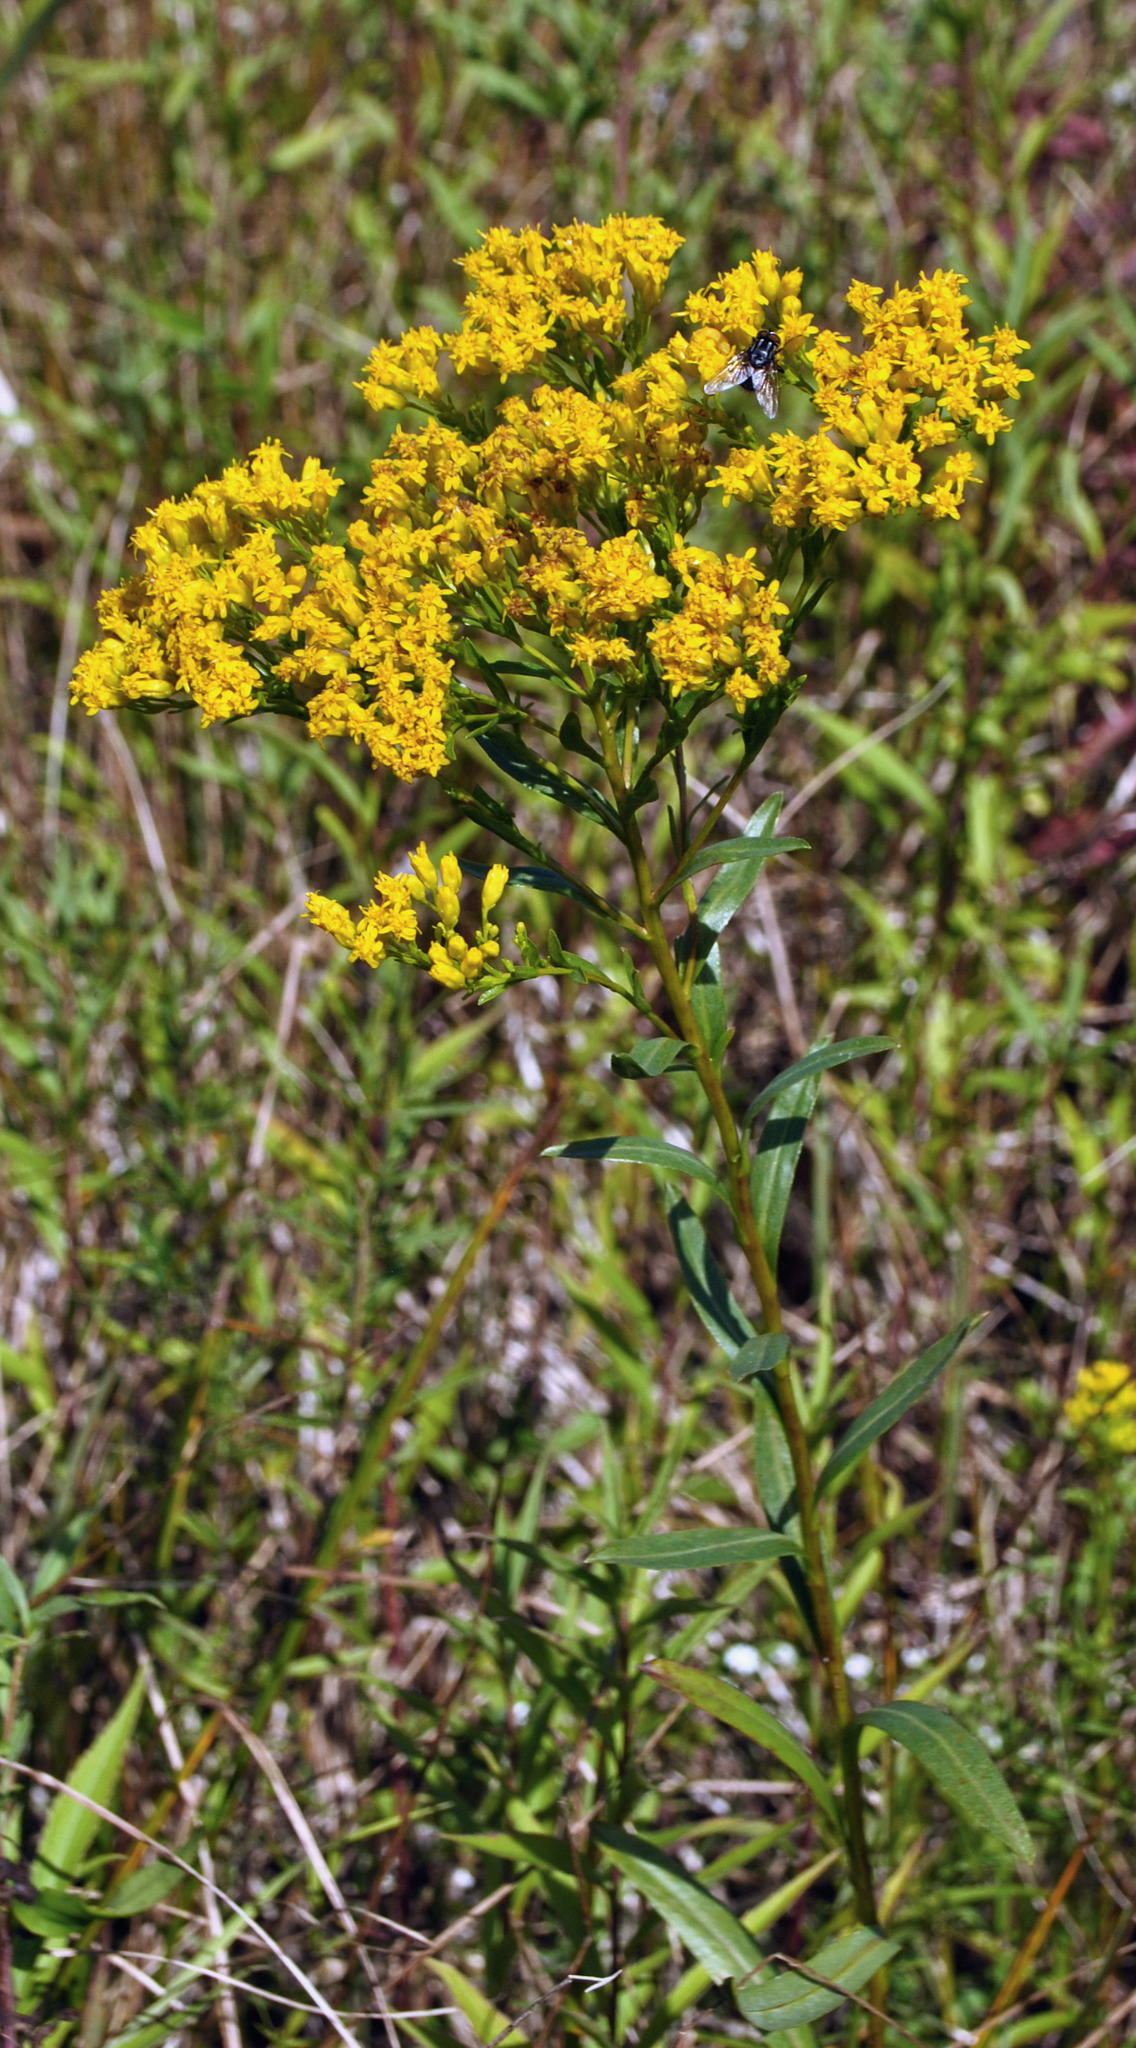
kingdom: Plantae
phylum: Tracheophyta
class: Magnoliopsida
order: Asterales
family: Asteraceae
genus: Solidago
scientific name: Solidago ohioensis
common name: Ohio goldenrod
